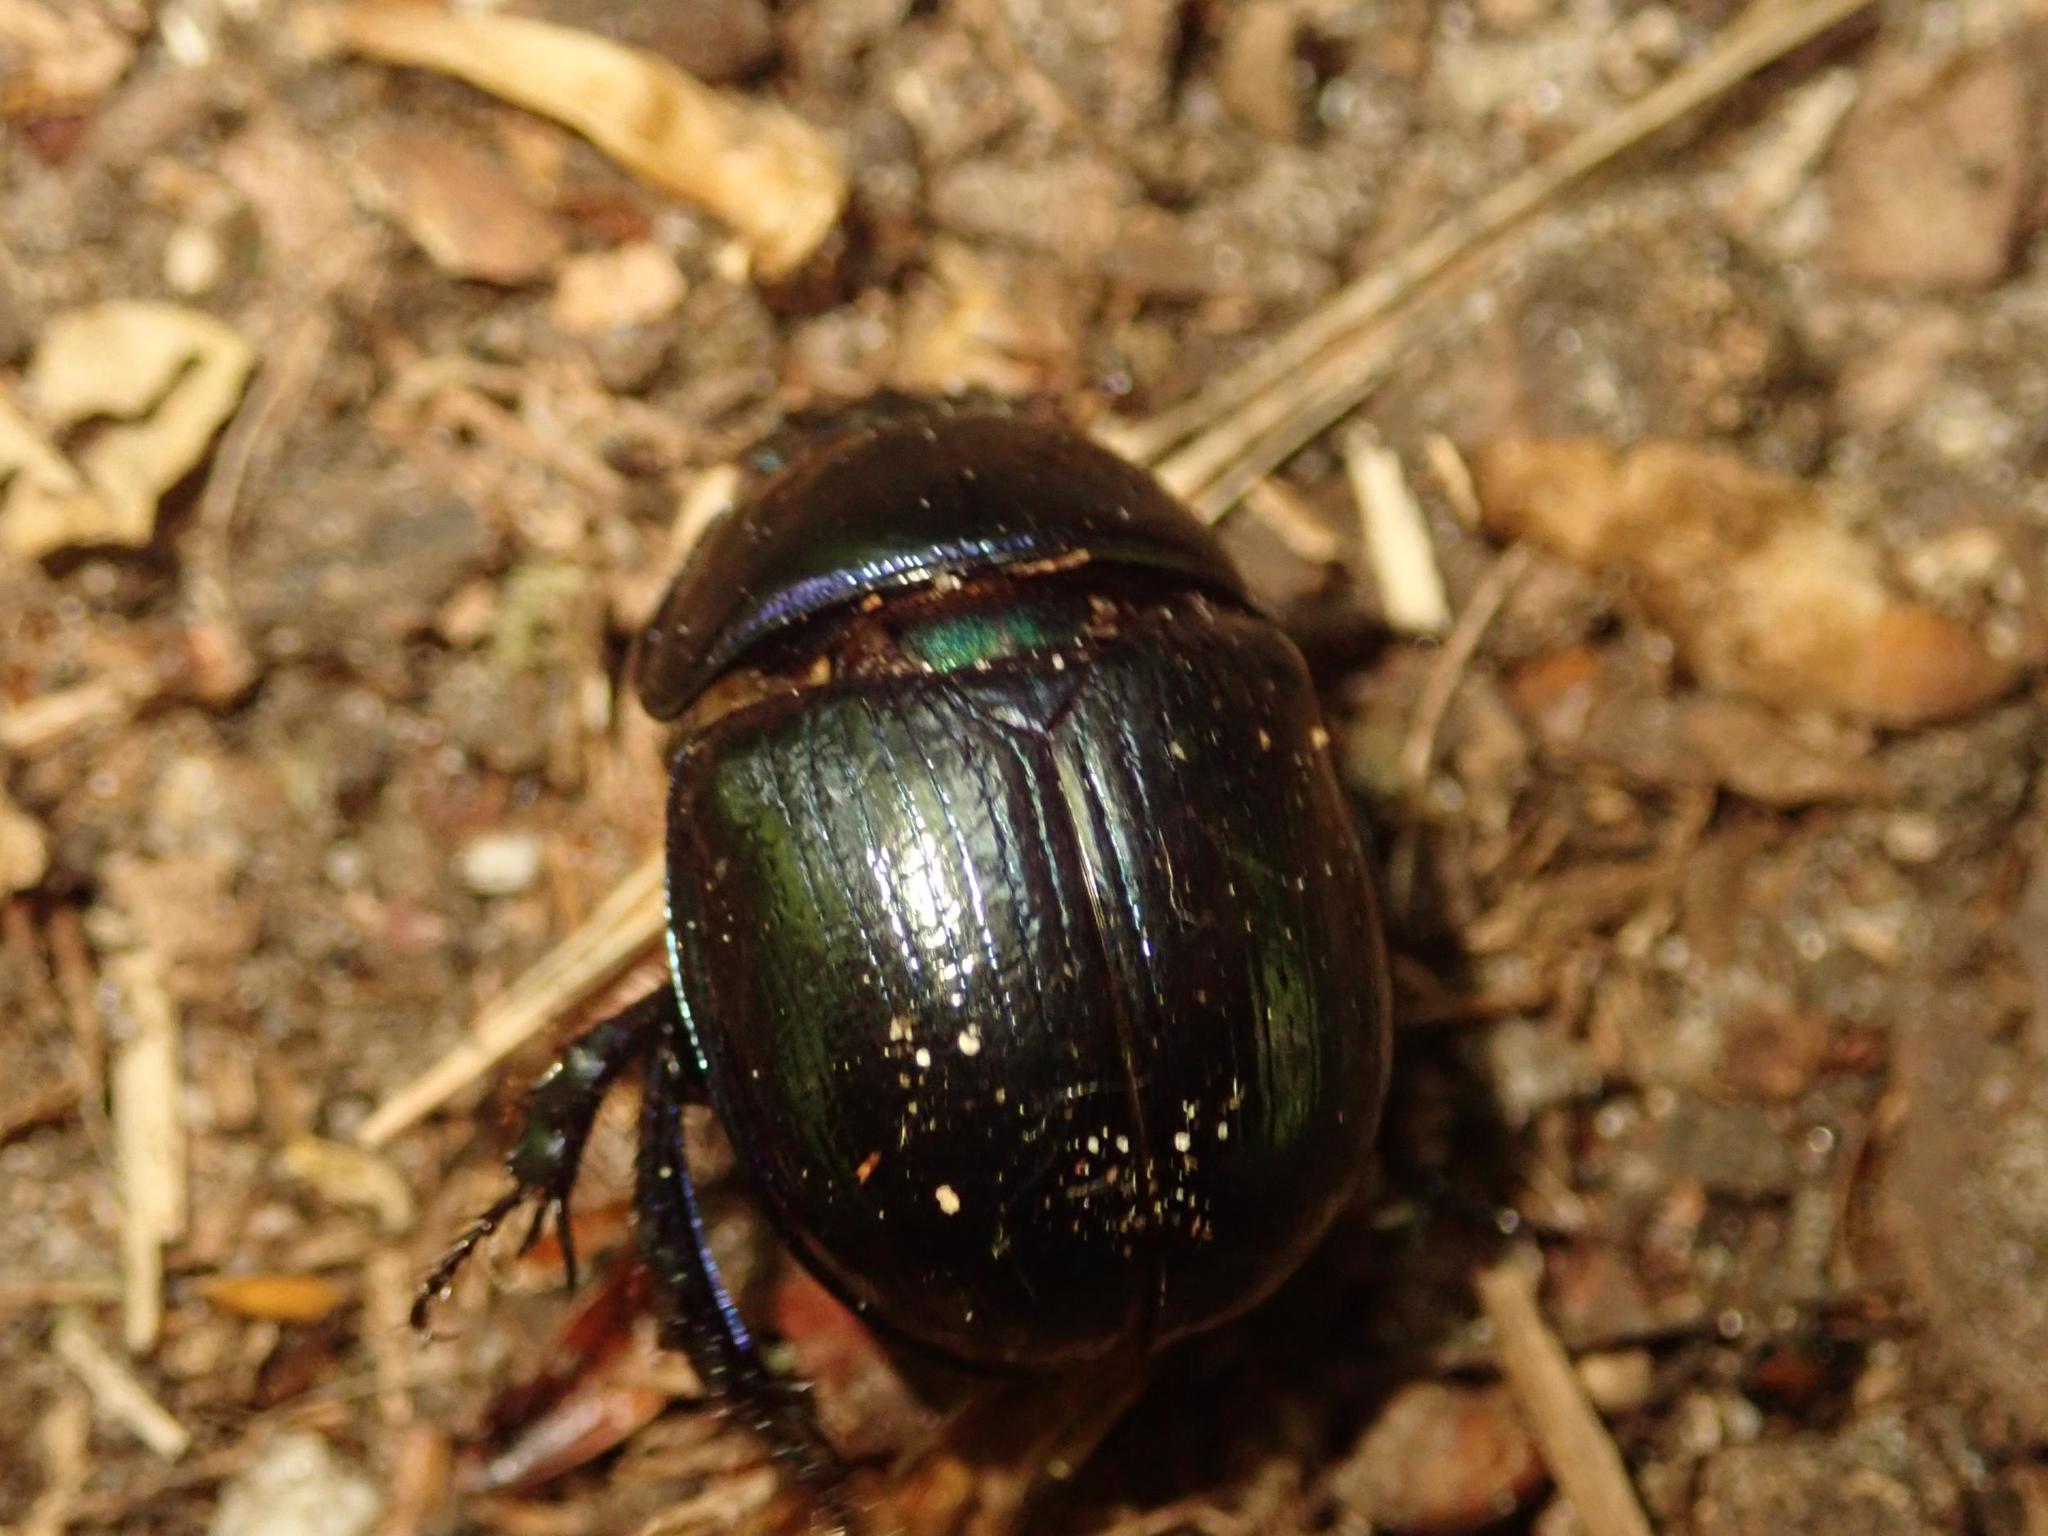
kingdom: Animalia
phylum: Arthropoda
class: Insecta
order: Coleoptera
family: Geotrupidae
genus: Anoplotrupes
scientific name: Anoplotrupes stercorosus
